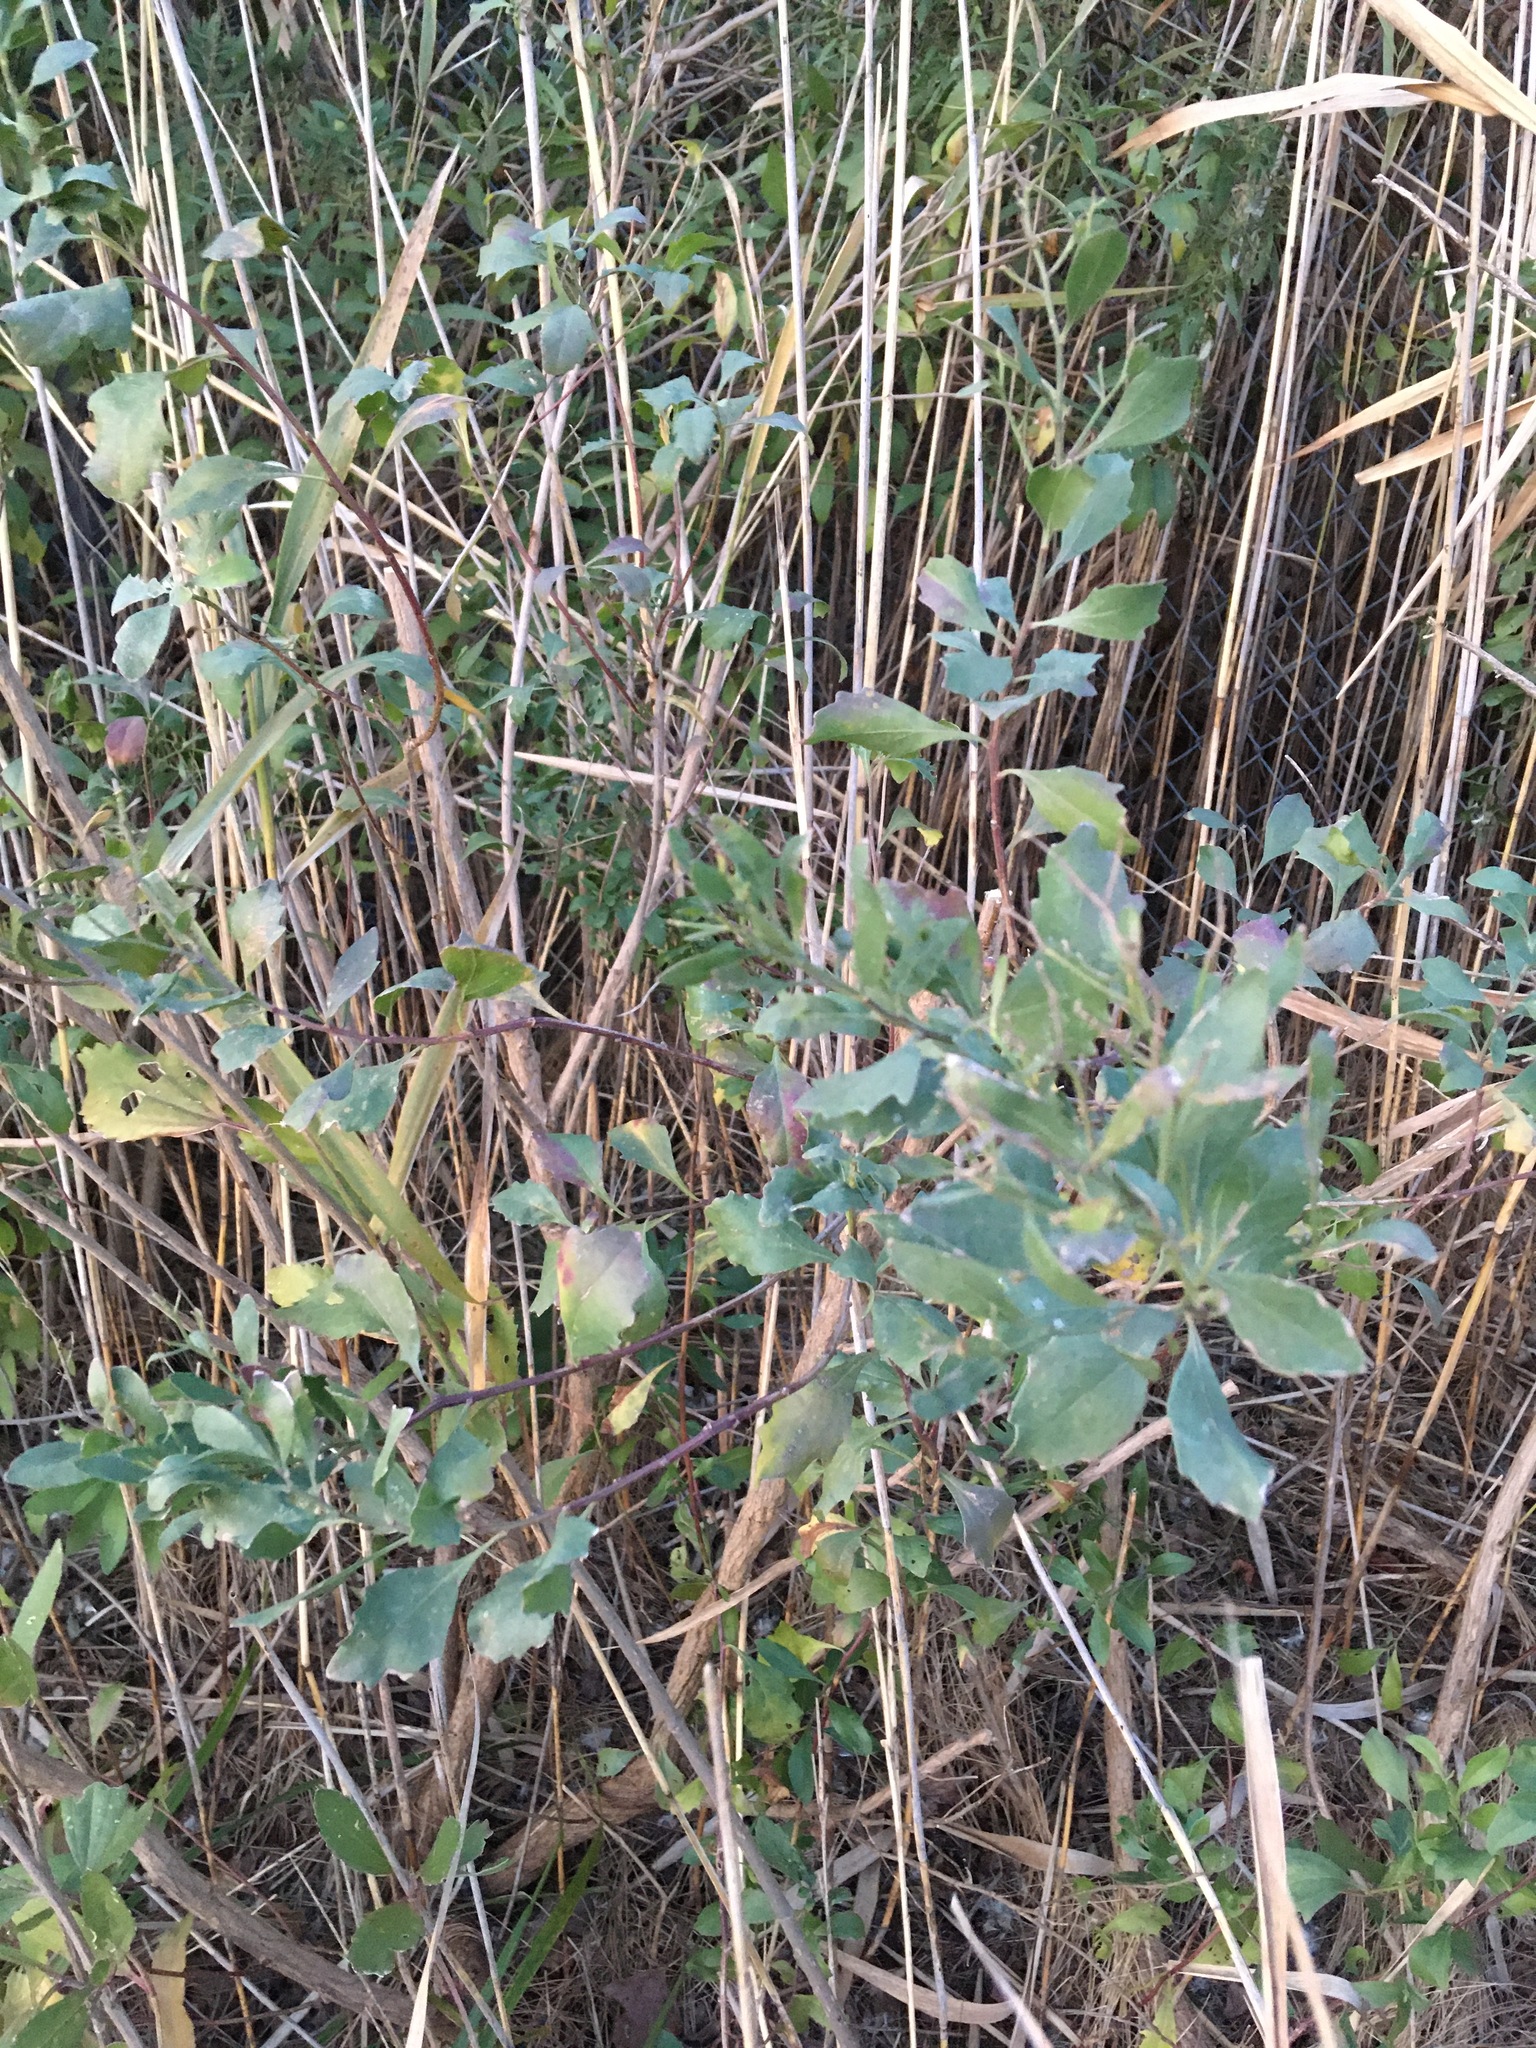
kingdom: Plantae
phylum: Tracheophyta
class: Magnoliopsida
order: Asterales
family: Asteraceae
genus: Baccharis
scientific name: Baccharis halimifolia
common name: Eastern baccharis
